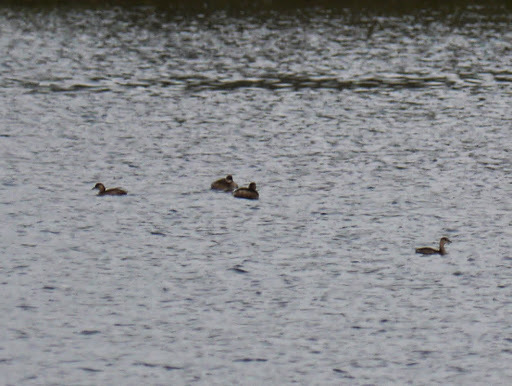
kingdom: Animalia
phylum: Chordata
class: Aves
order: Podicipediformes
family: Podicipedidae
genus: Tachybaptus
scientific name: Tachybaptus ruficollis
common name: Little grebe
